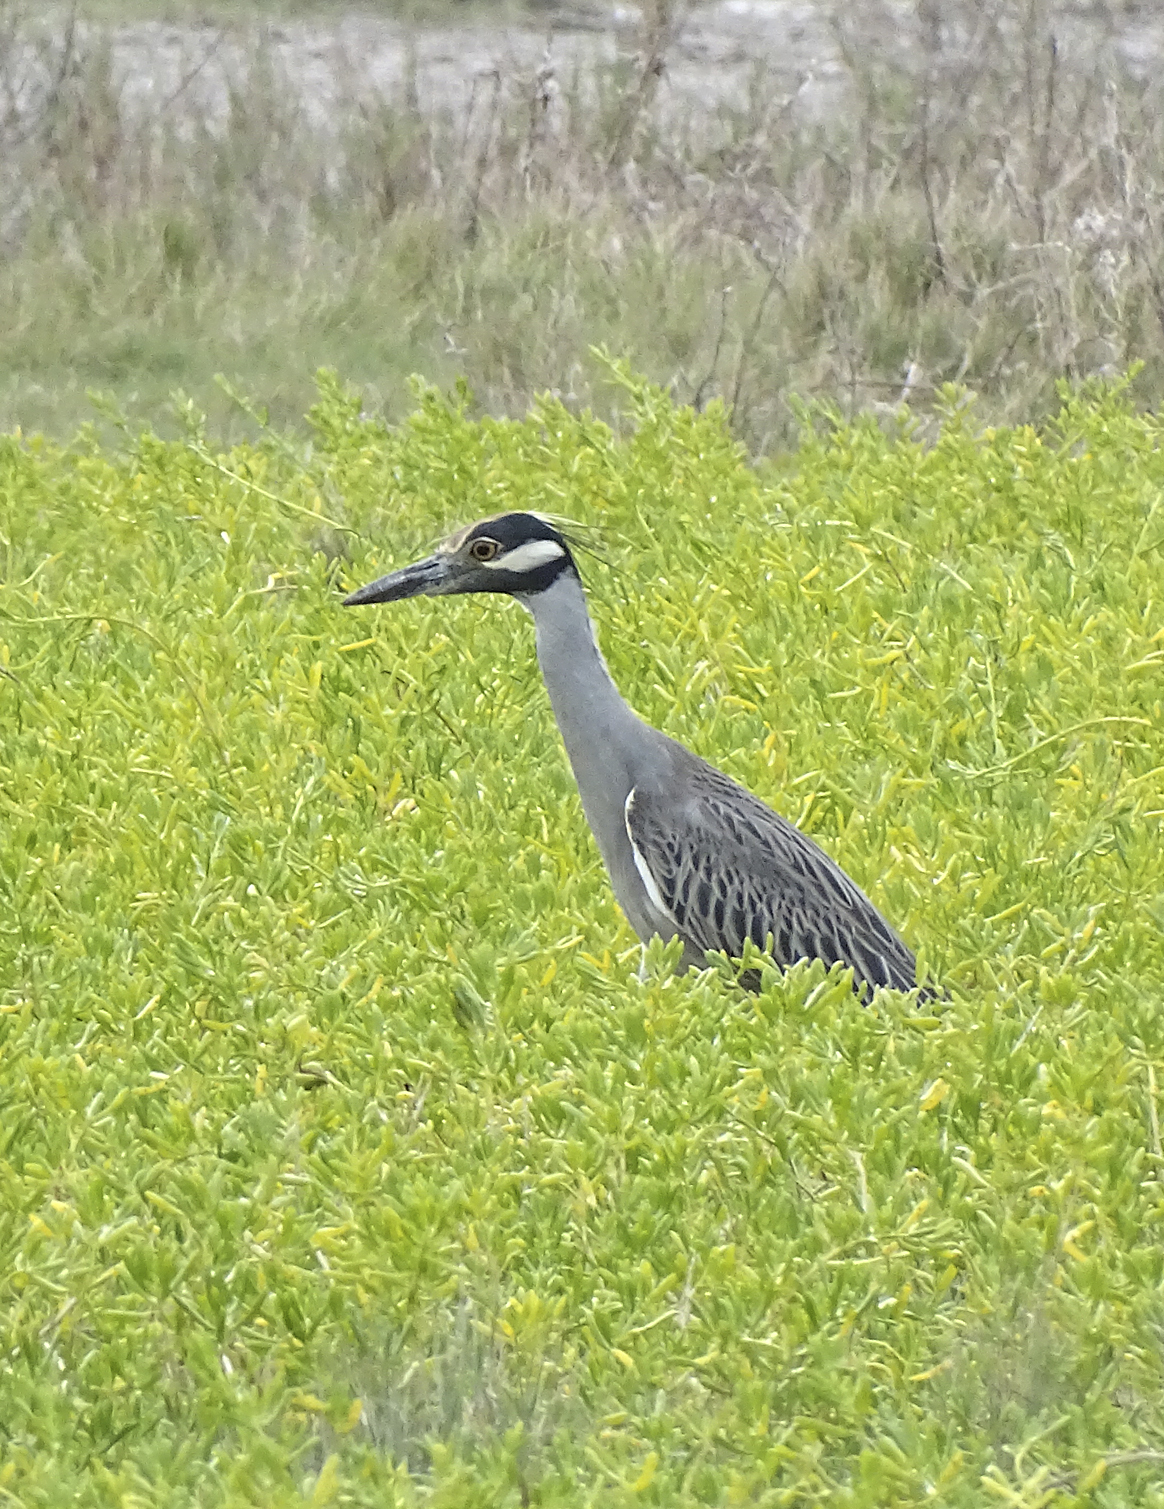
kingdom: Animalia
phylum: Chordata
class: Aves
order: Pelecaniformes
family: Ardeidae
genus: Nyctanassa
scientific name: Nyctanassa violacea
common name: Yellow-crowned night heron
